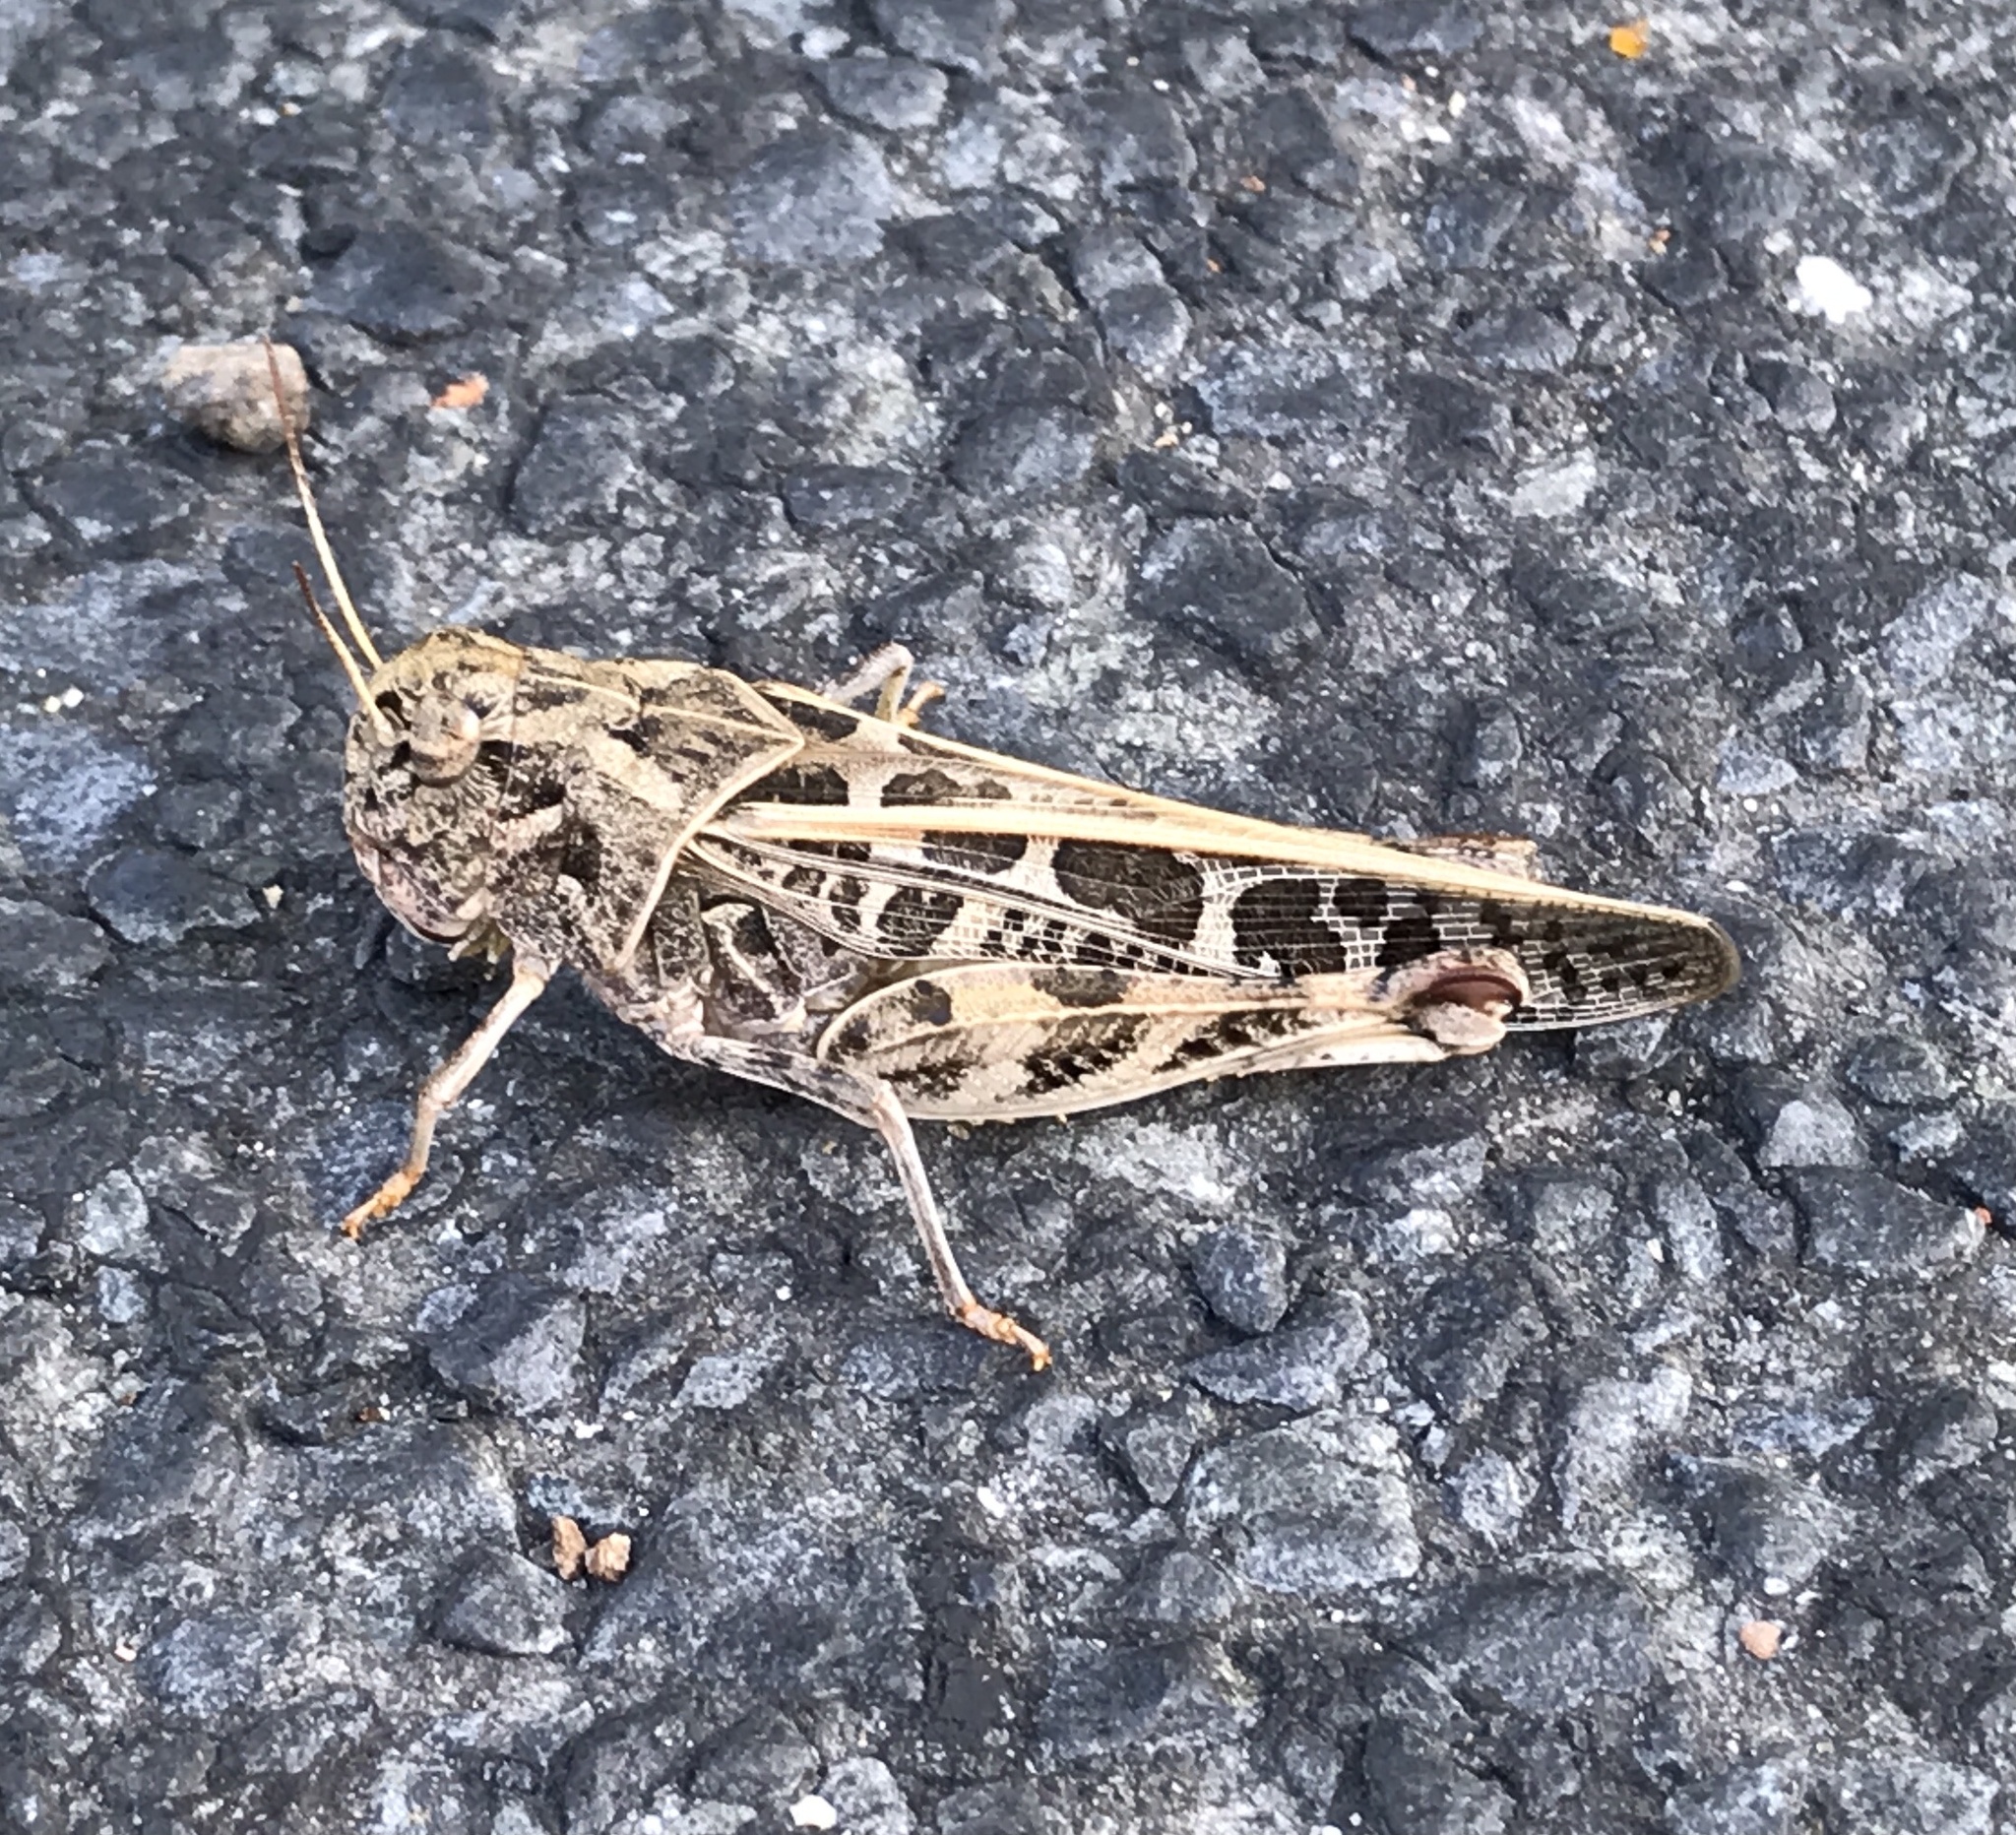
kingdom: Animalia
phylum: Arthropoda
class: Insecta
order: Orthoptera
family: Acrididae
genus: Hippiscus
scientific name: Hippiscus ocelote
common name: Wrinkled grasshopper
